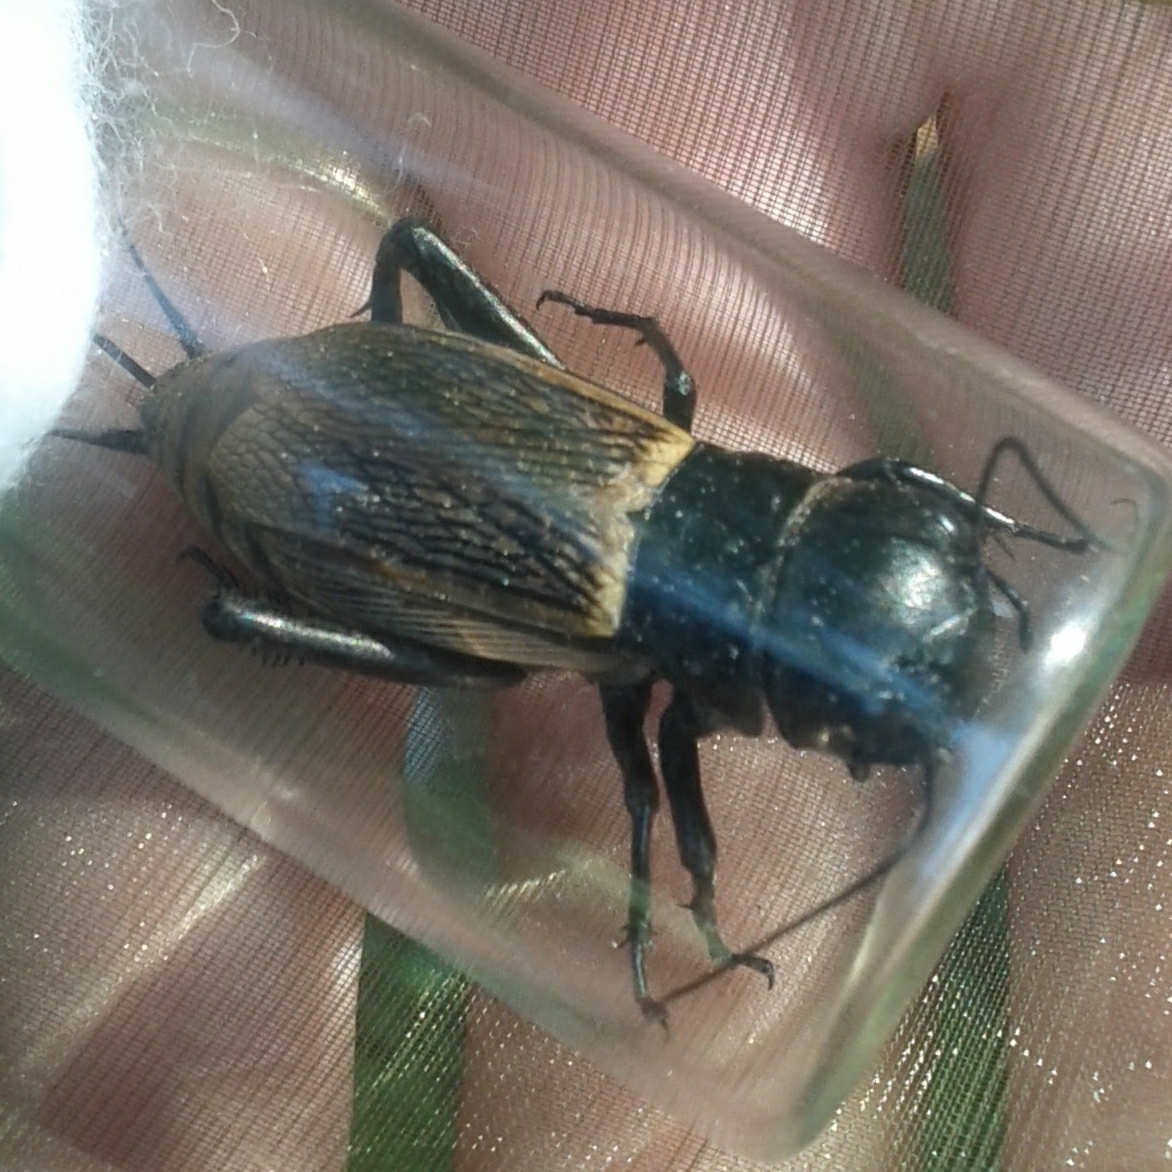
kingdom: Animalia
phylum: Arthropoda
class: Insecta
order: Orthoptera
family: Gryllidae
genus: Gryllus
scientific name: Gryllus campestris
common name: Field cricket
